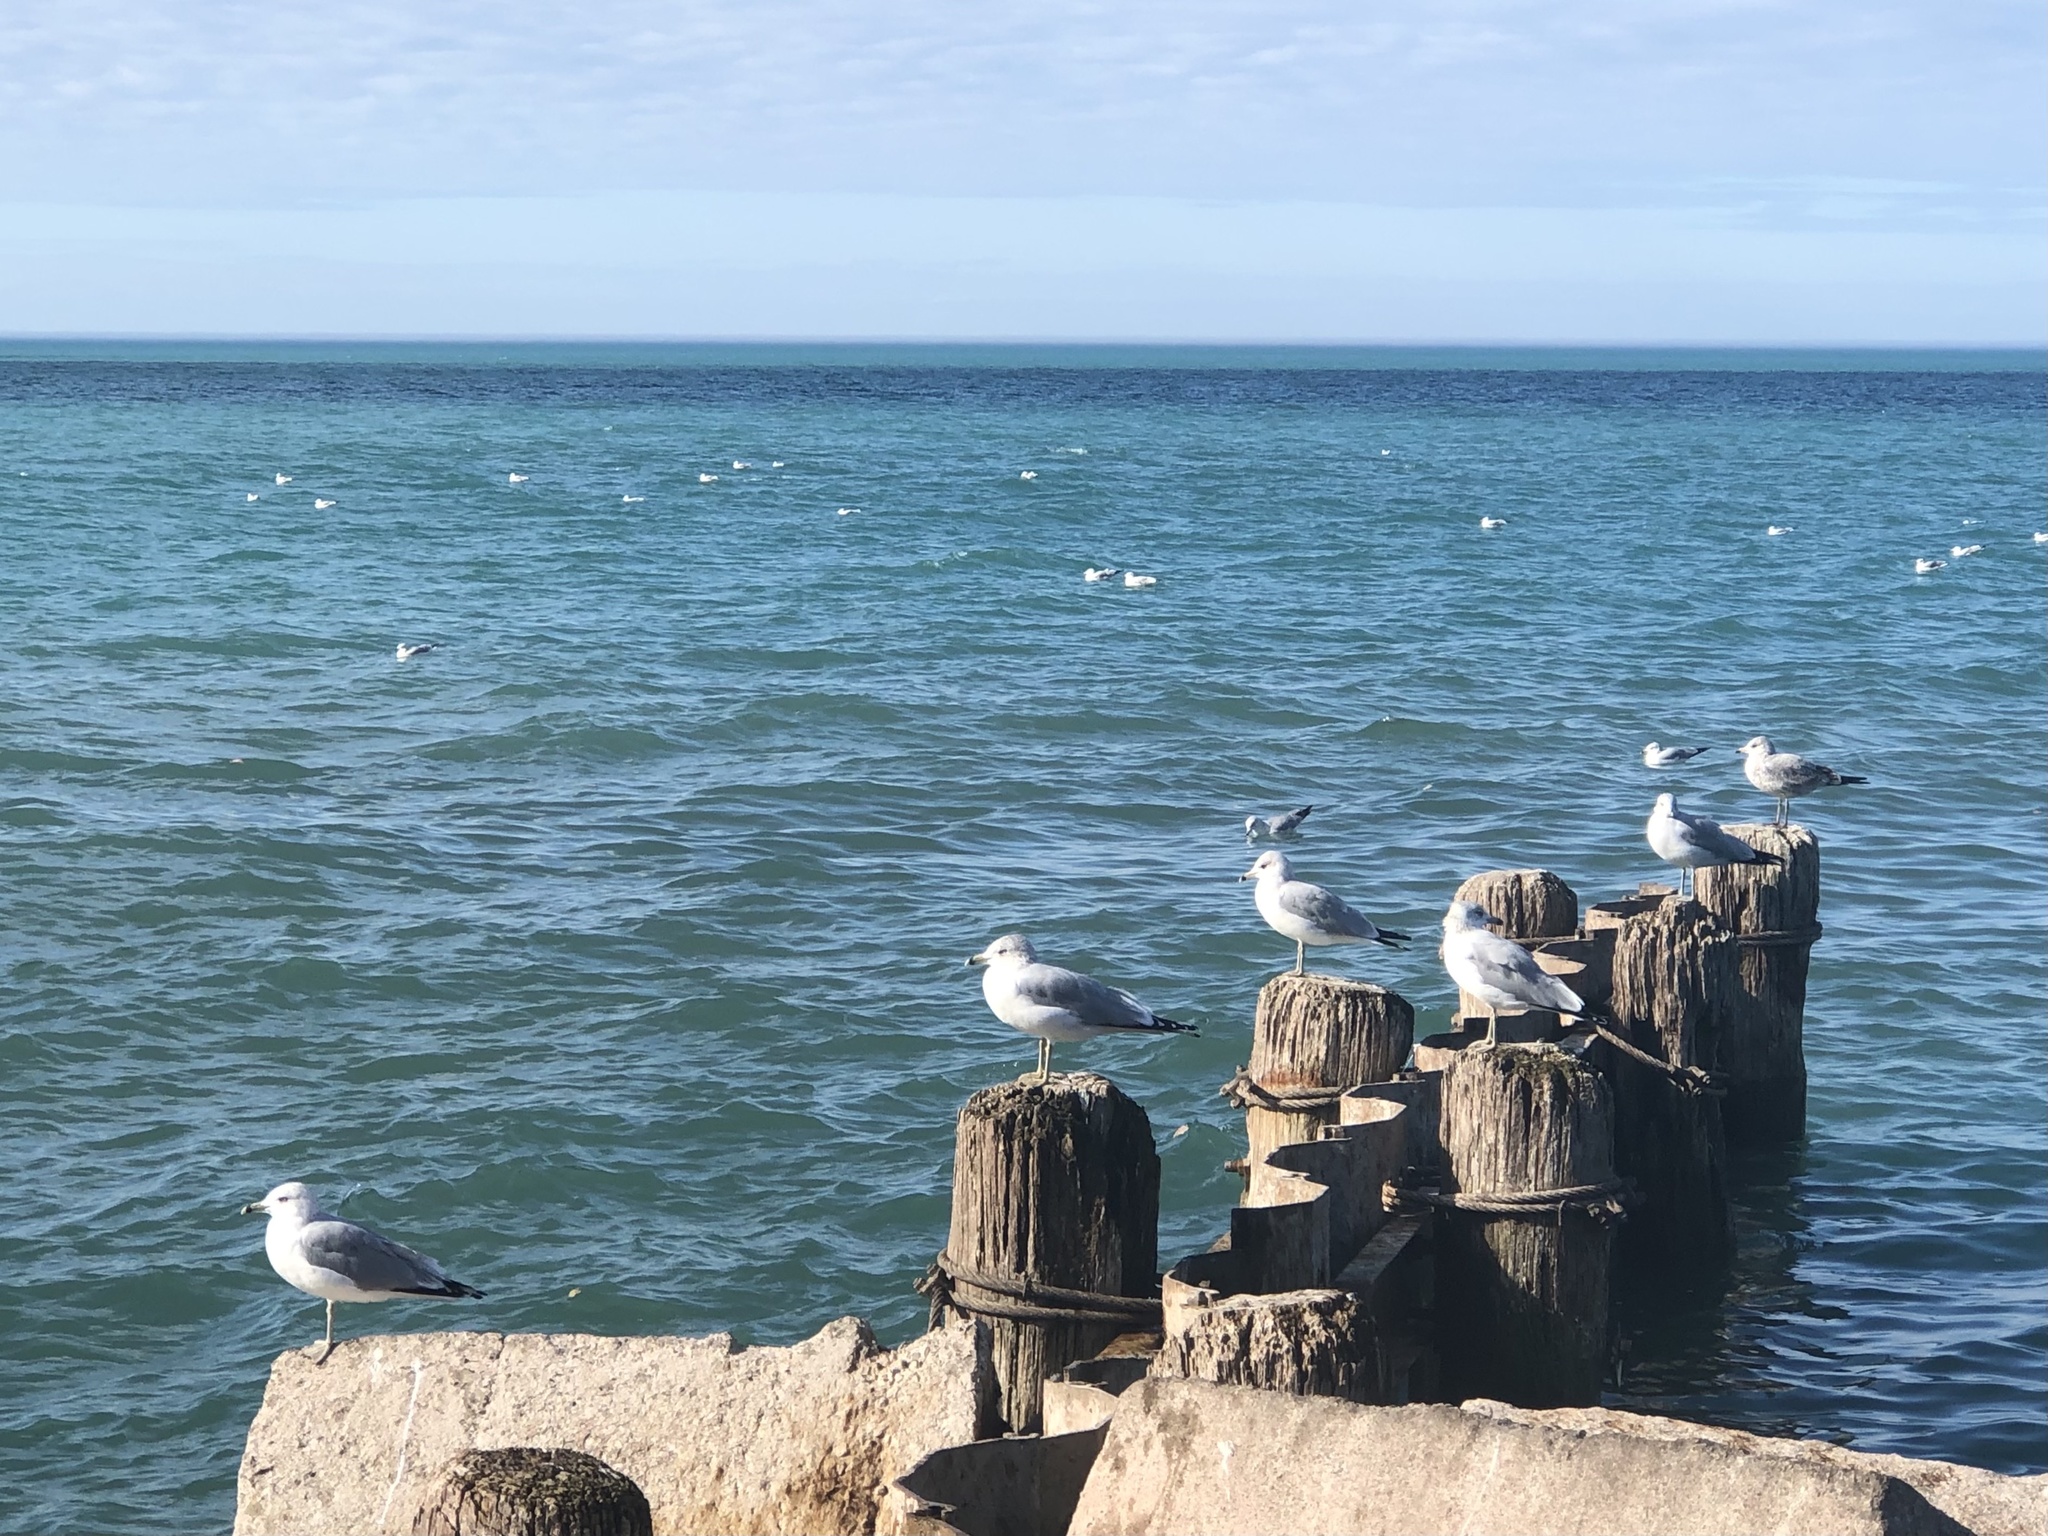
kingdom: Animalia
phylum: Chordata
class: Aves
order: Charadriiformes
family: Laridae
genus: Larus
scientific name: Larus delawarensis
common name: Ring-billed gull
